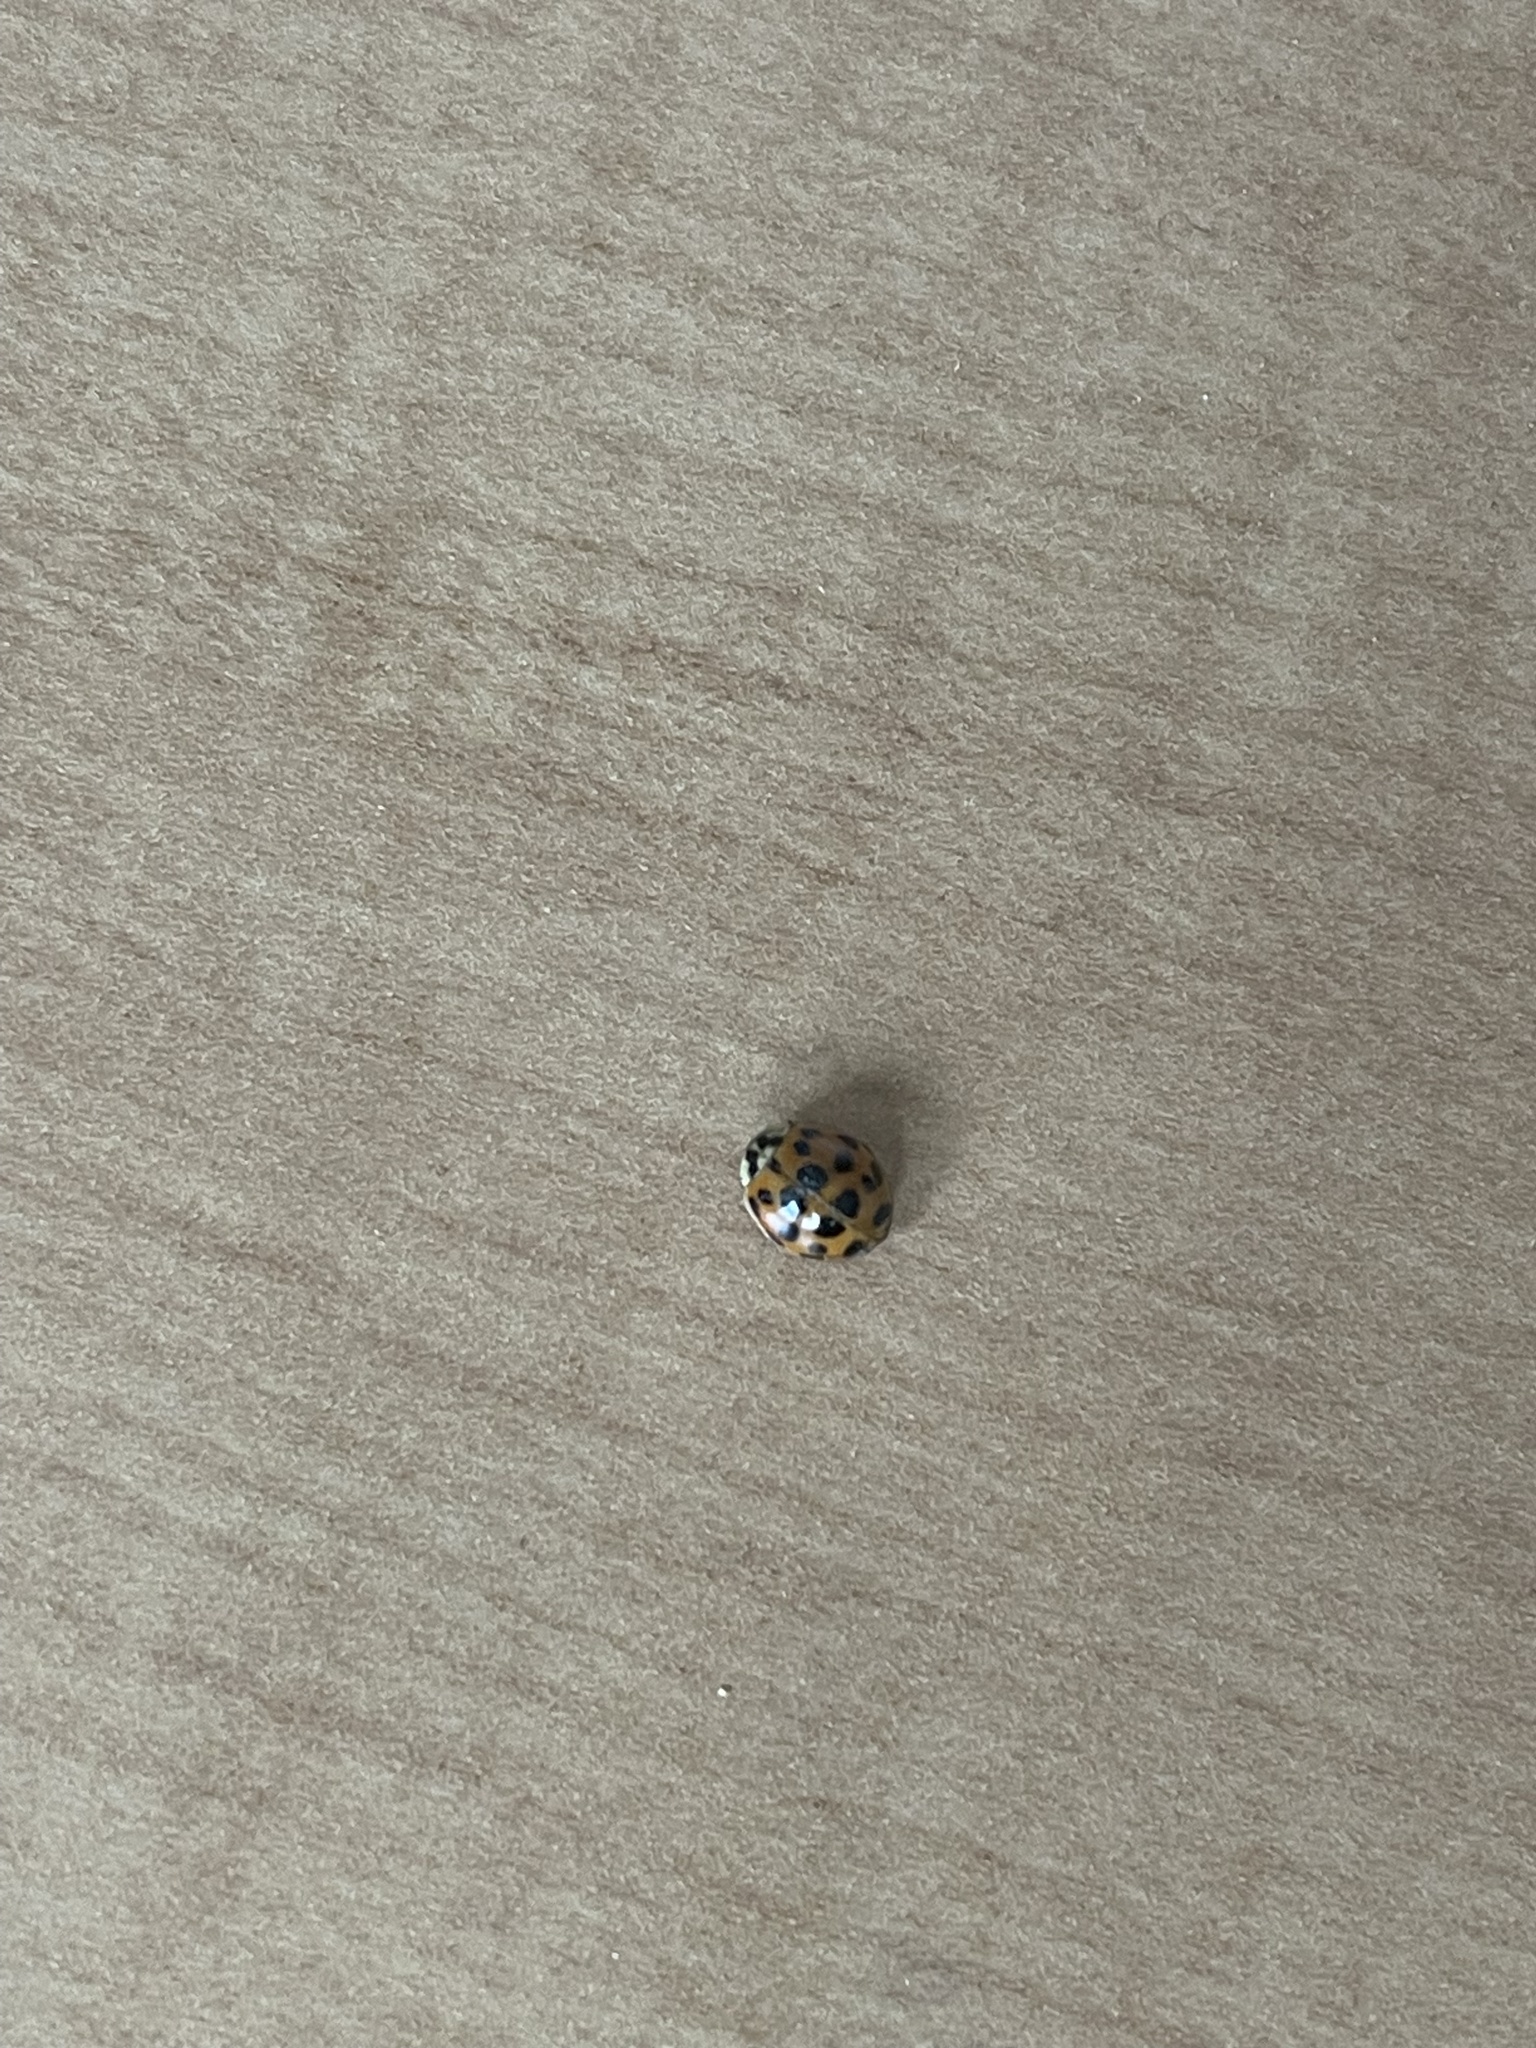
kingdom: Animalia
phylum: Arthropoda
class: Insecta
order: Coleoptera
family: Coccinellidae
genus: Harmonia
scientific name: Harmonia axyridis
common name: Harlequin ladybird
